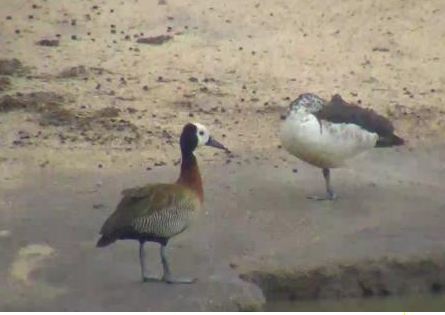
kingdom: Animalia
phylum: Chordata
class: Aves
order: Anseriformes
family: Anatidae
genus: Dendrocygna
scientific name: Dendrocygna viduata
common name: White-faced whistling duck
